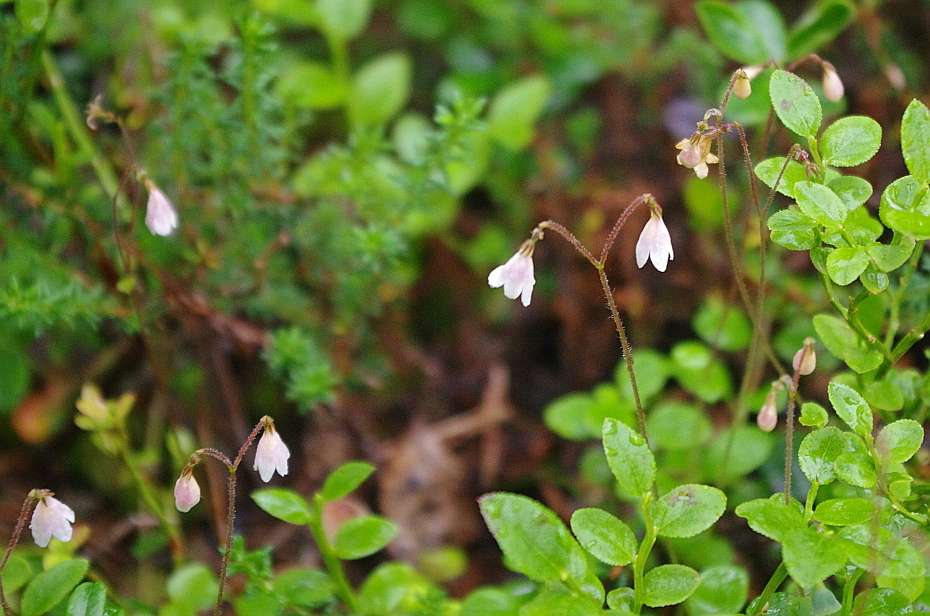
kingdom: Plantae
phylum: Tracheophyta
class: Magnoliopsida
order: Dipsacales
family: Caprifoliaceae
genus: Linnaea
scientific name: Linnaea borealis
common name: Twinflower
